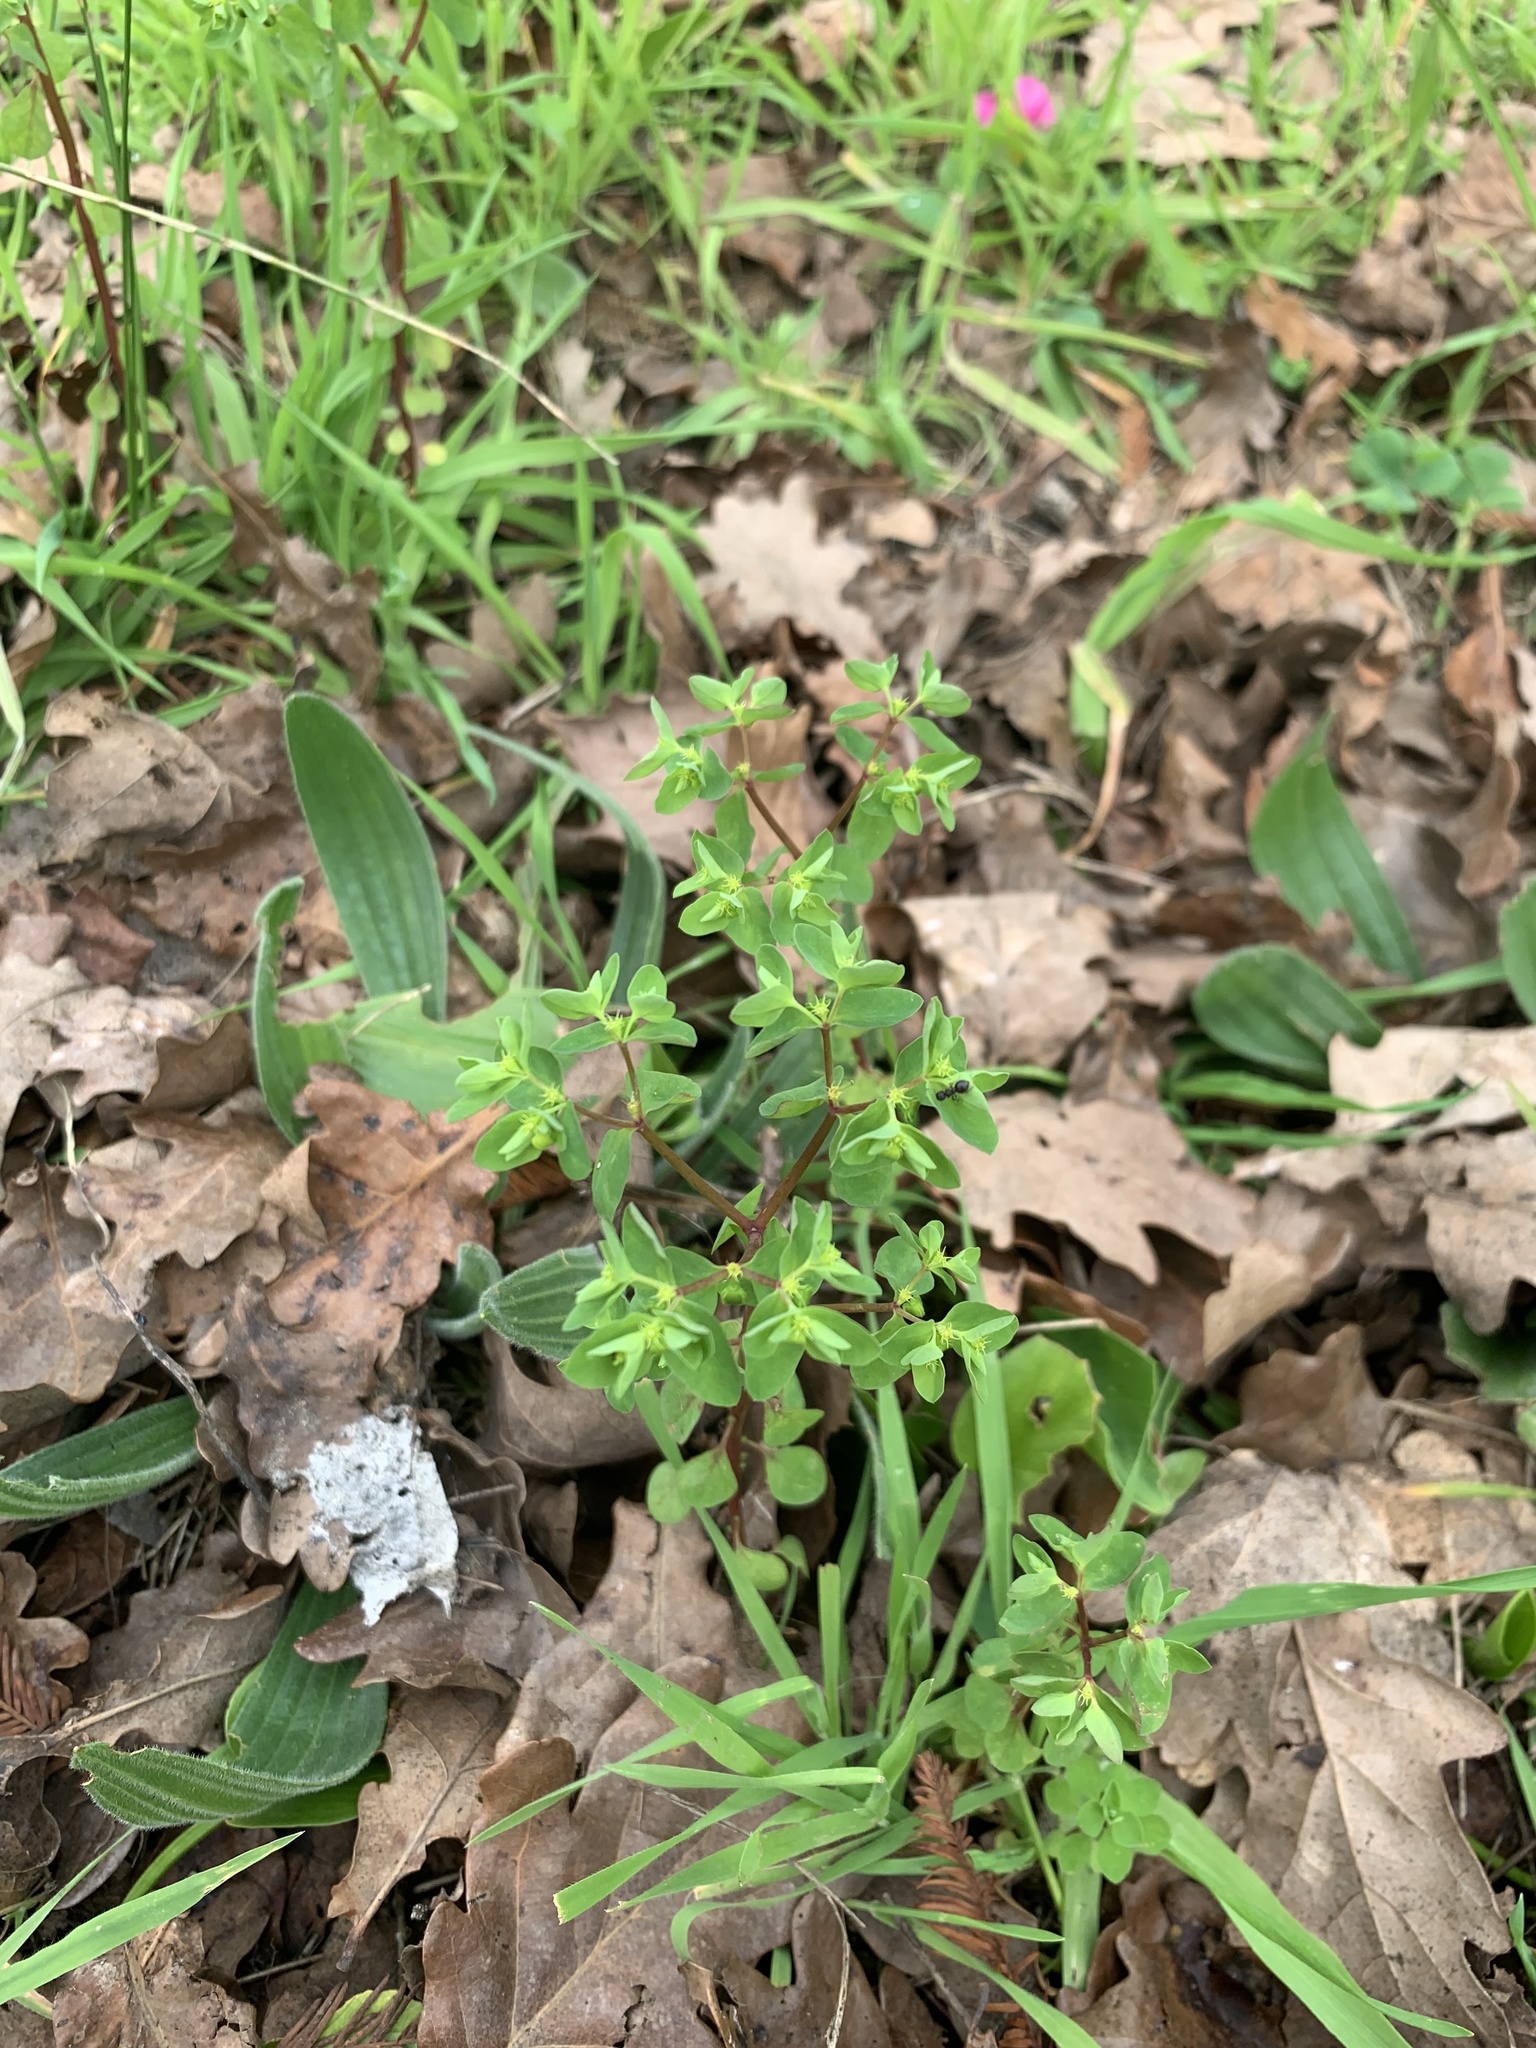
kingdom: Plantae
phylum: Tracheophyta
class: Magnoliopsida
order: Malpighiales
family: Euphorbiaceae
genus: Euphorbia
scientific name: Euphorbia peplus
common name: Petty spurge
